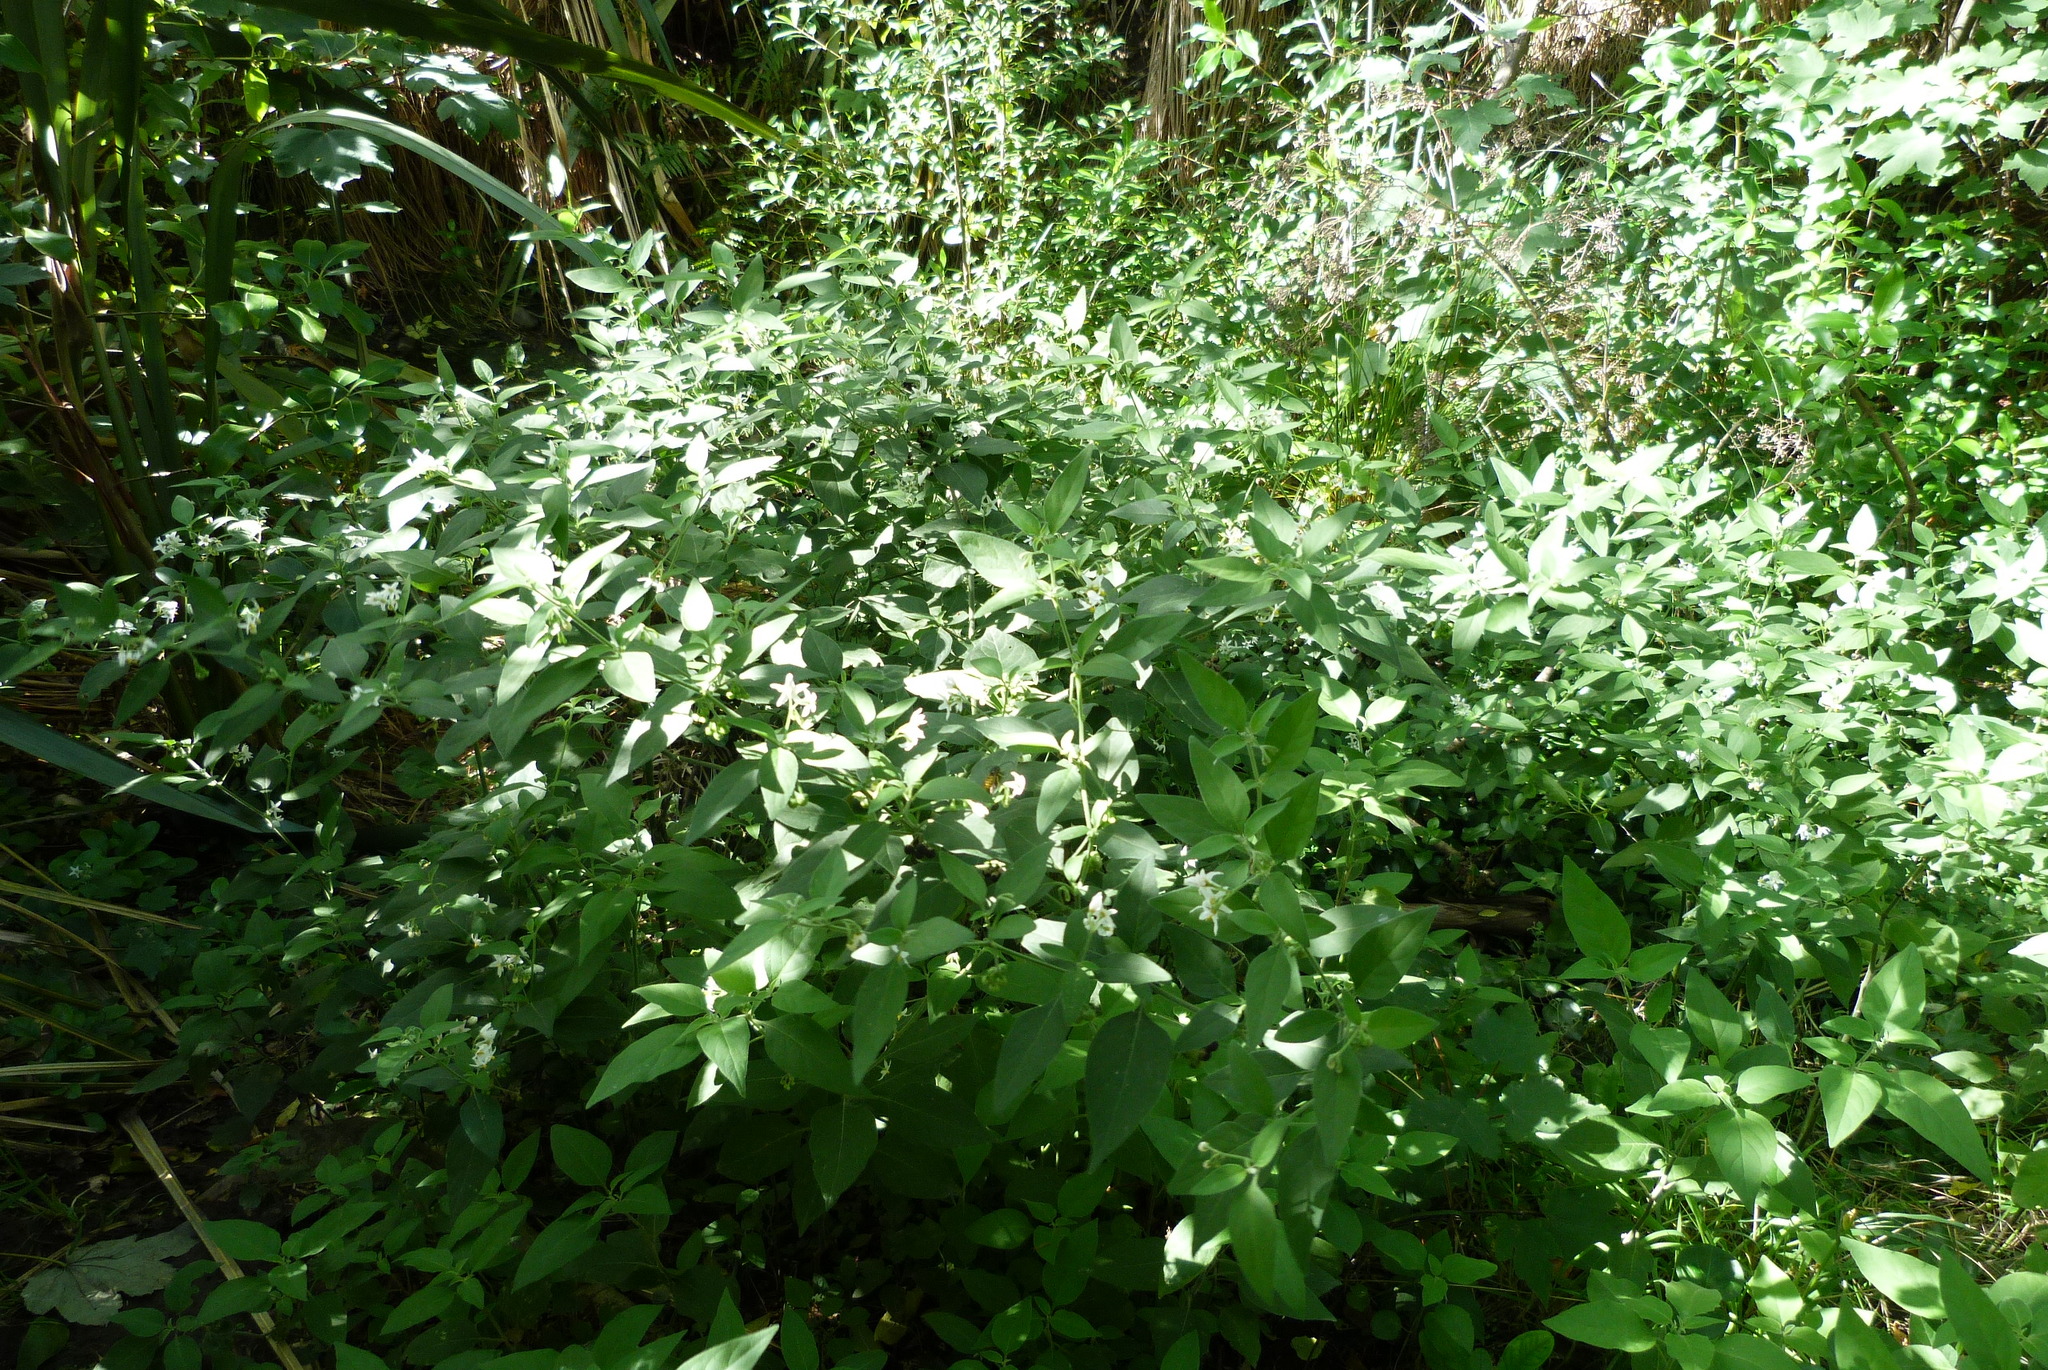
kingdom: Plantae
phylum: Tracheophyta
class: Magnoliopsida
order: Solanales
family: Solanaceae
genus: Solanum
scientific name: Solanum chenopodioides
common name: Tall nightshade
